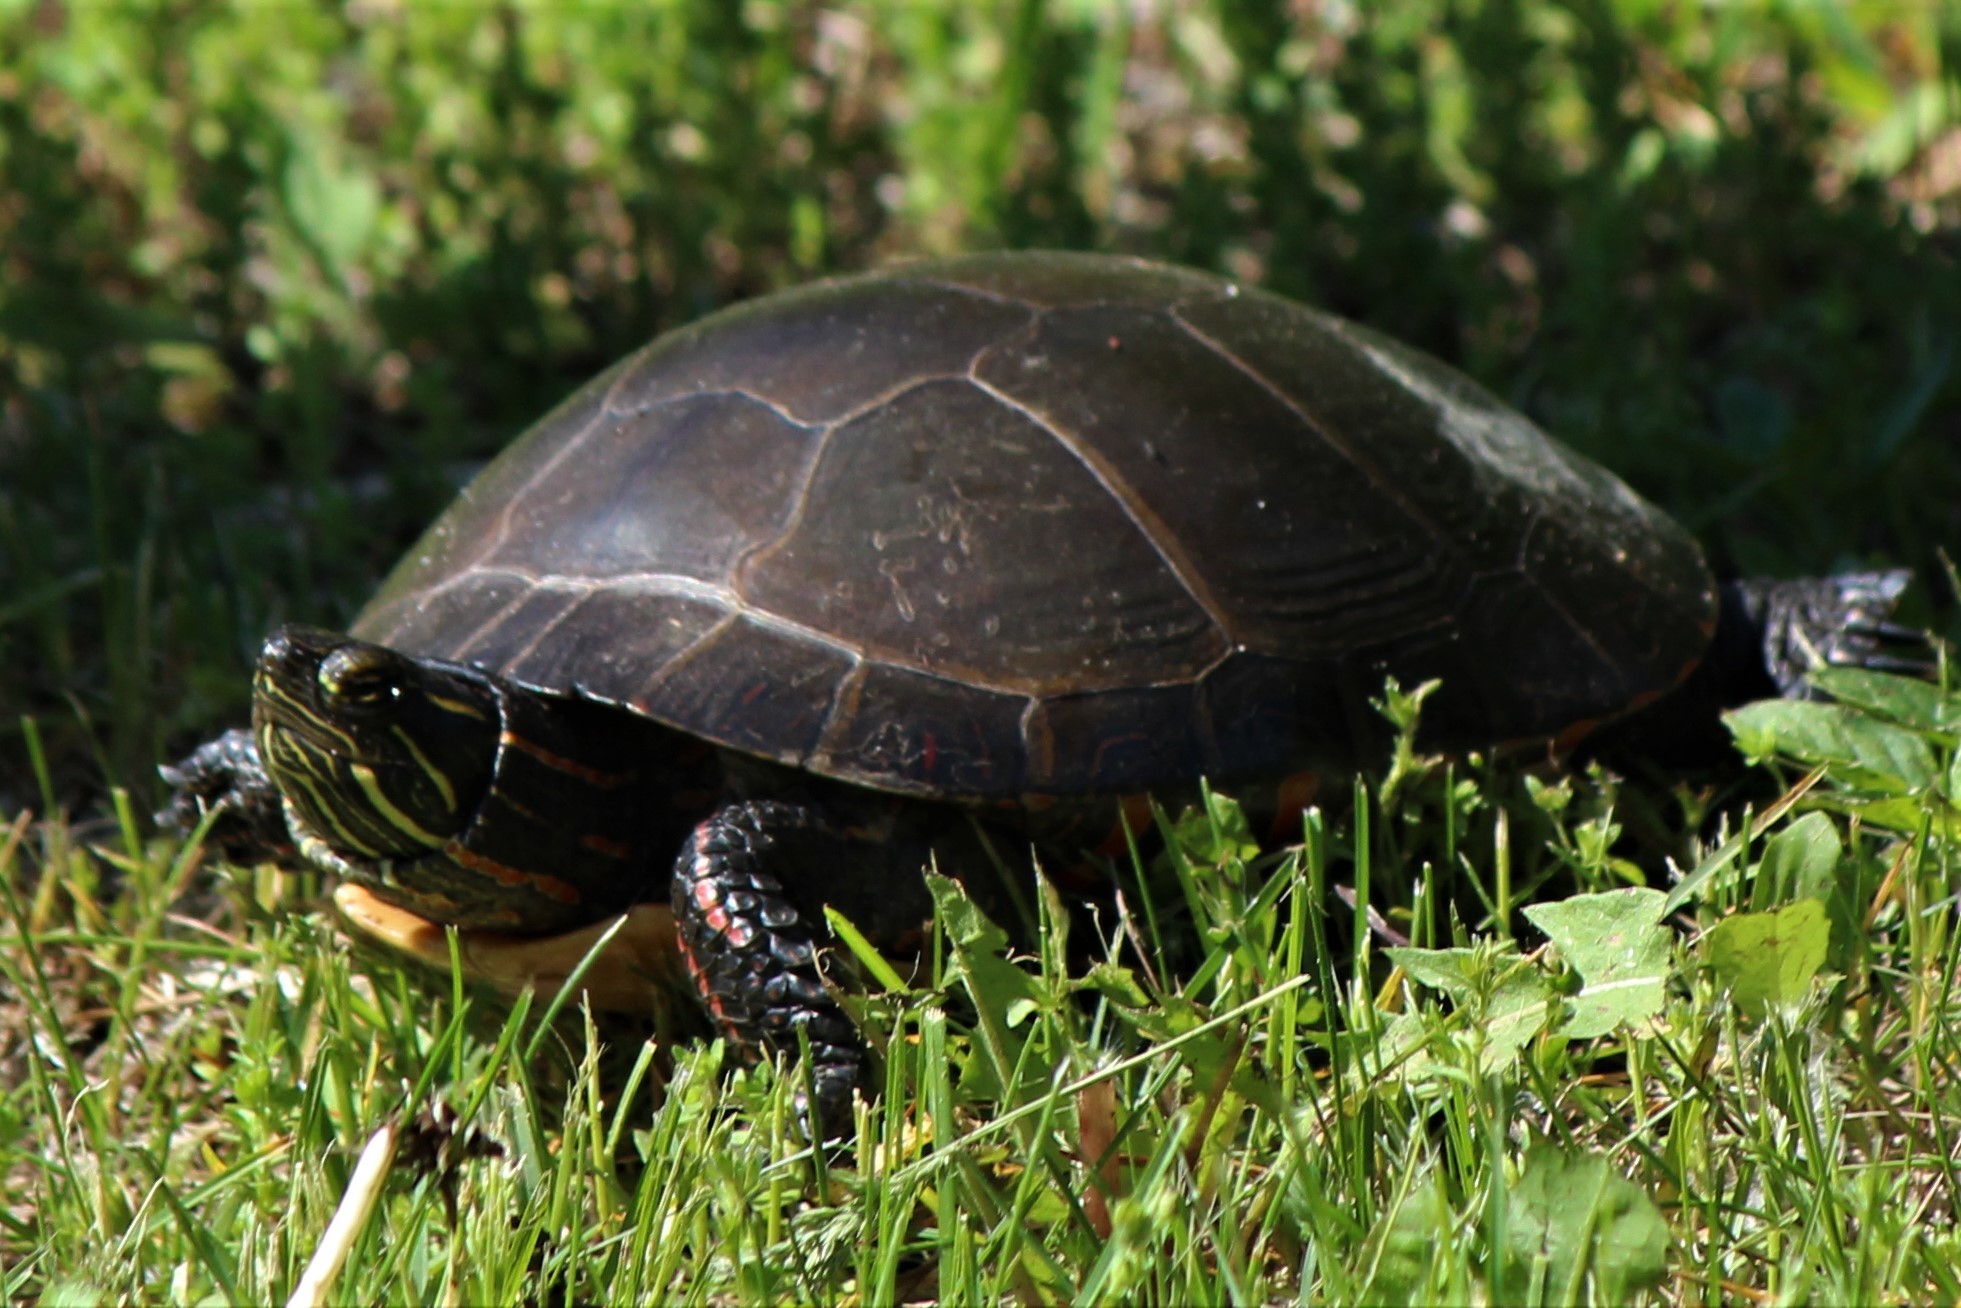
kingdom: Animalia
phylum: Chordata
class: Testudines
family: Emydidae
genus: Chrysemys
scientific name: Chrysemys picta
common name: Painted turtle
